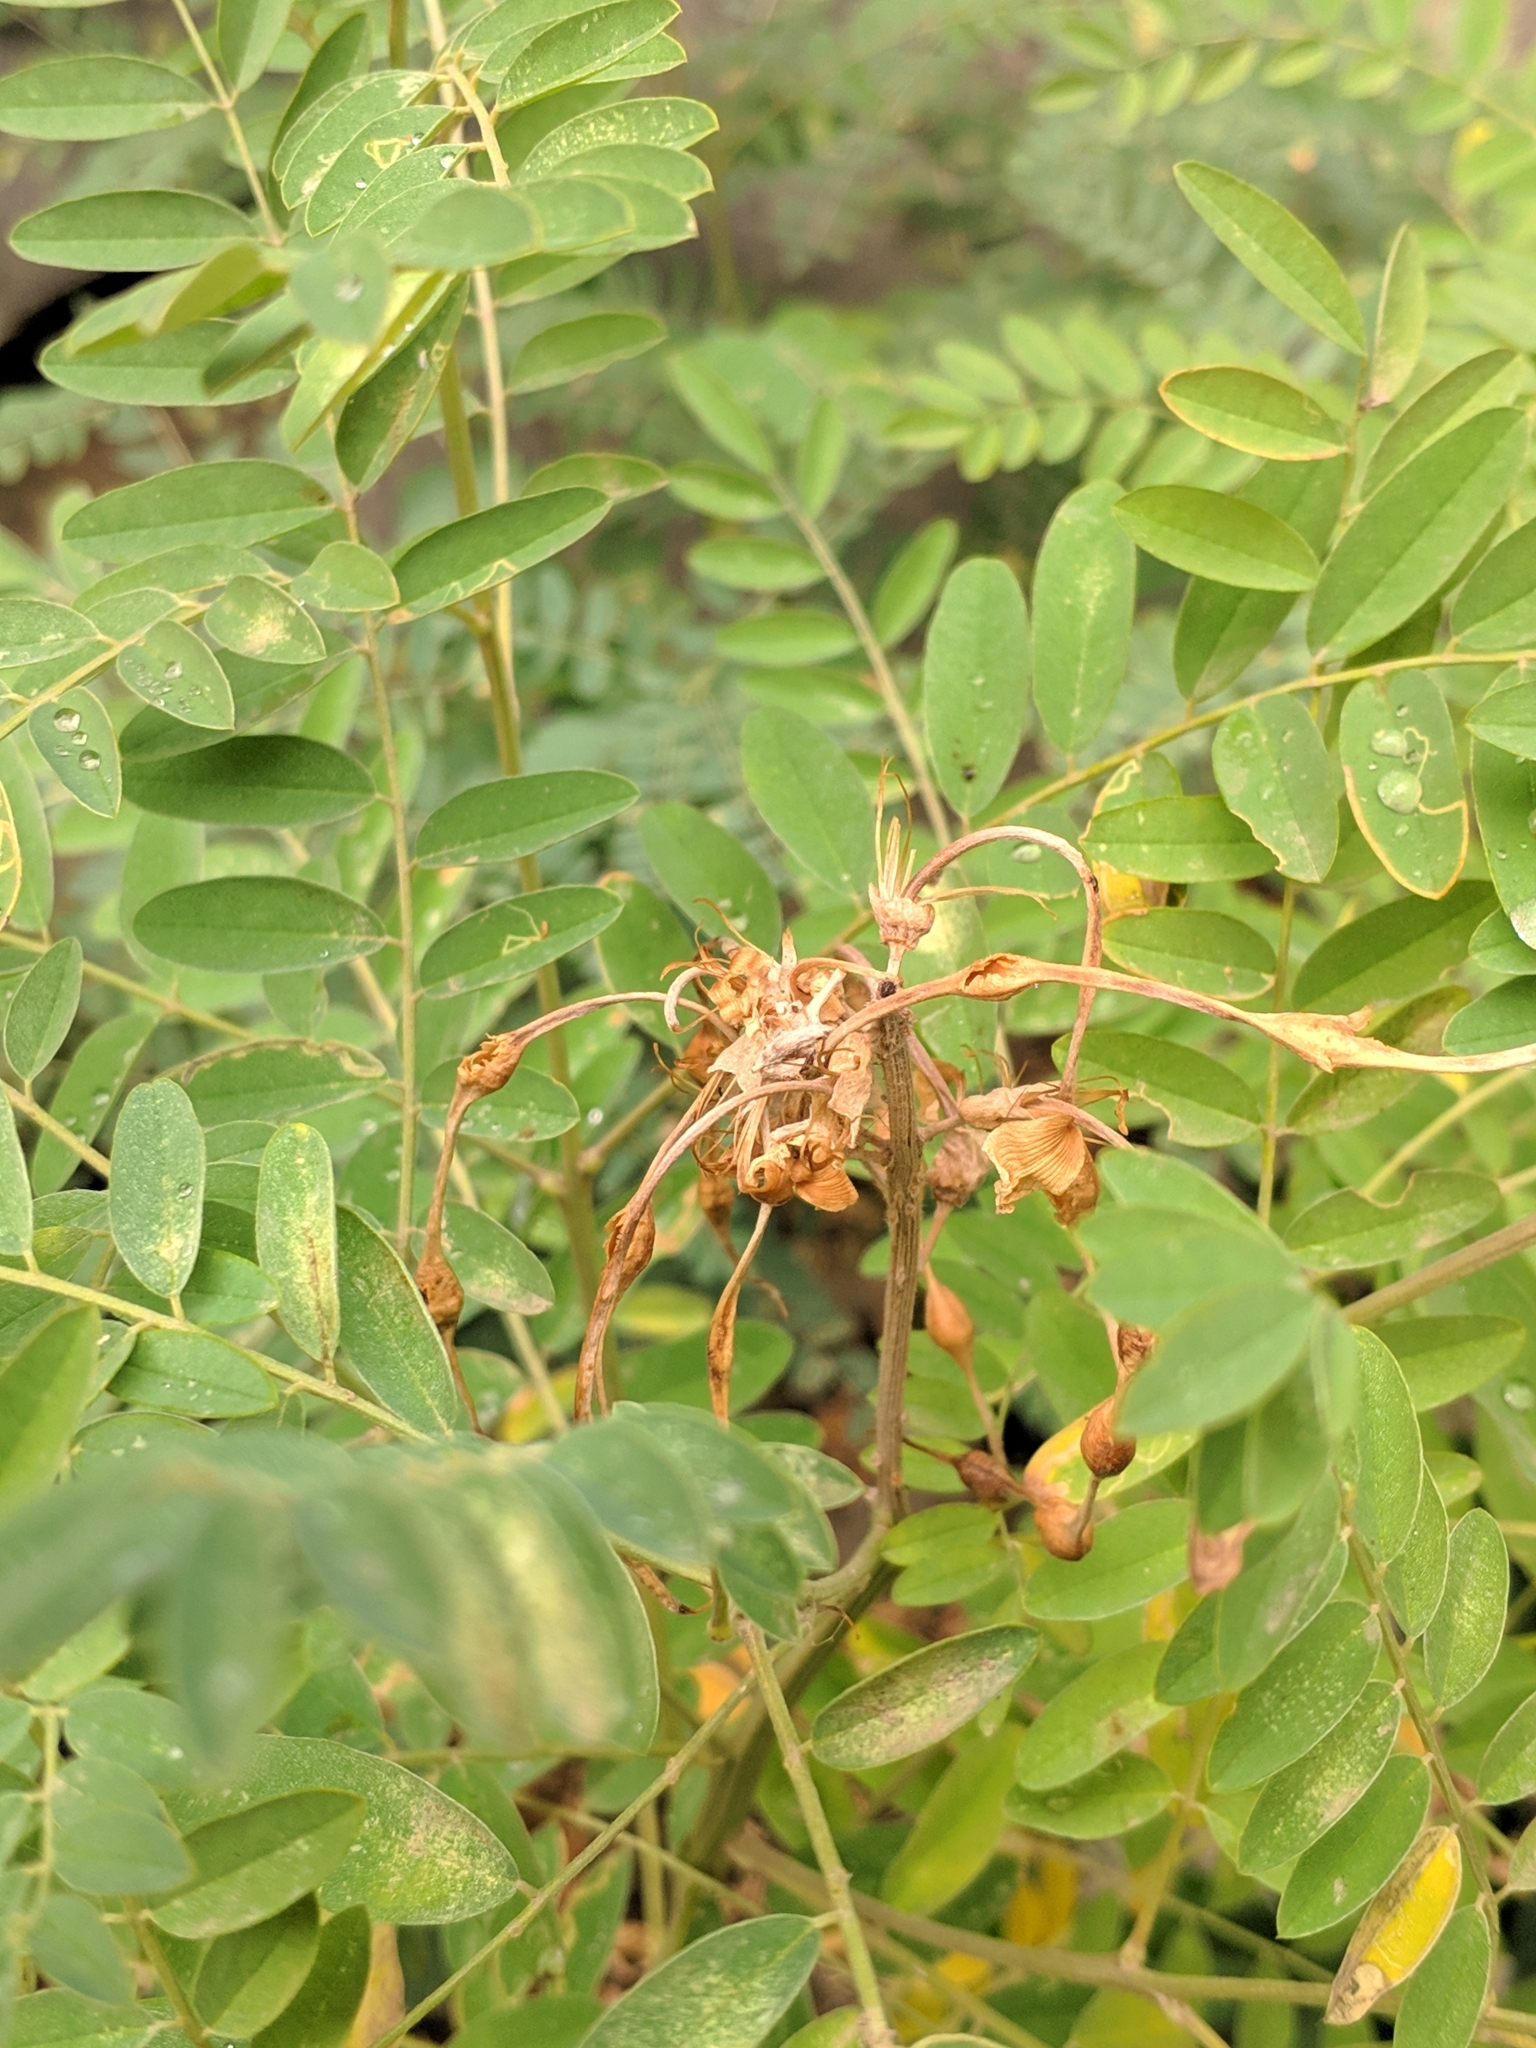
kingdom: Plantae
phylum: Tracheophyta
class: Magnoliopsida
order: Fabales
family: Fabaceae
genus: Sophora
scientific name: Sophora alopecuroides
